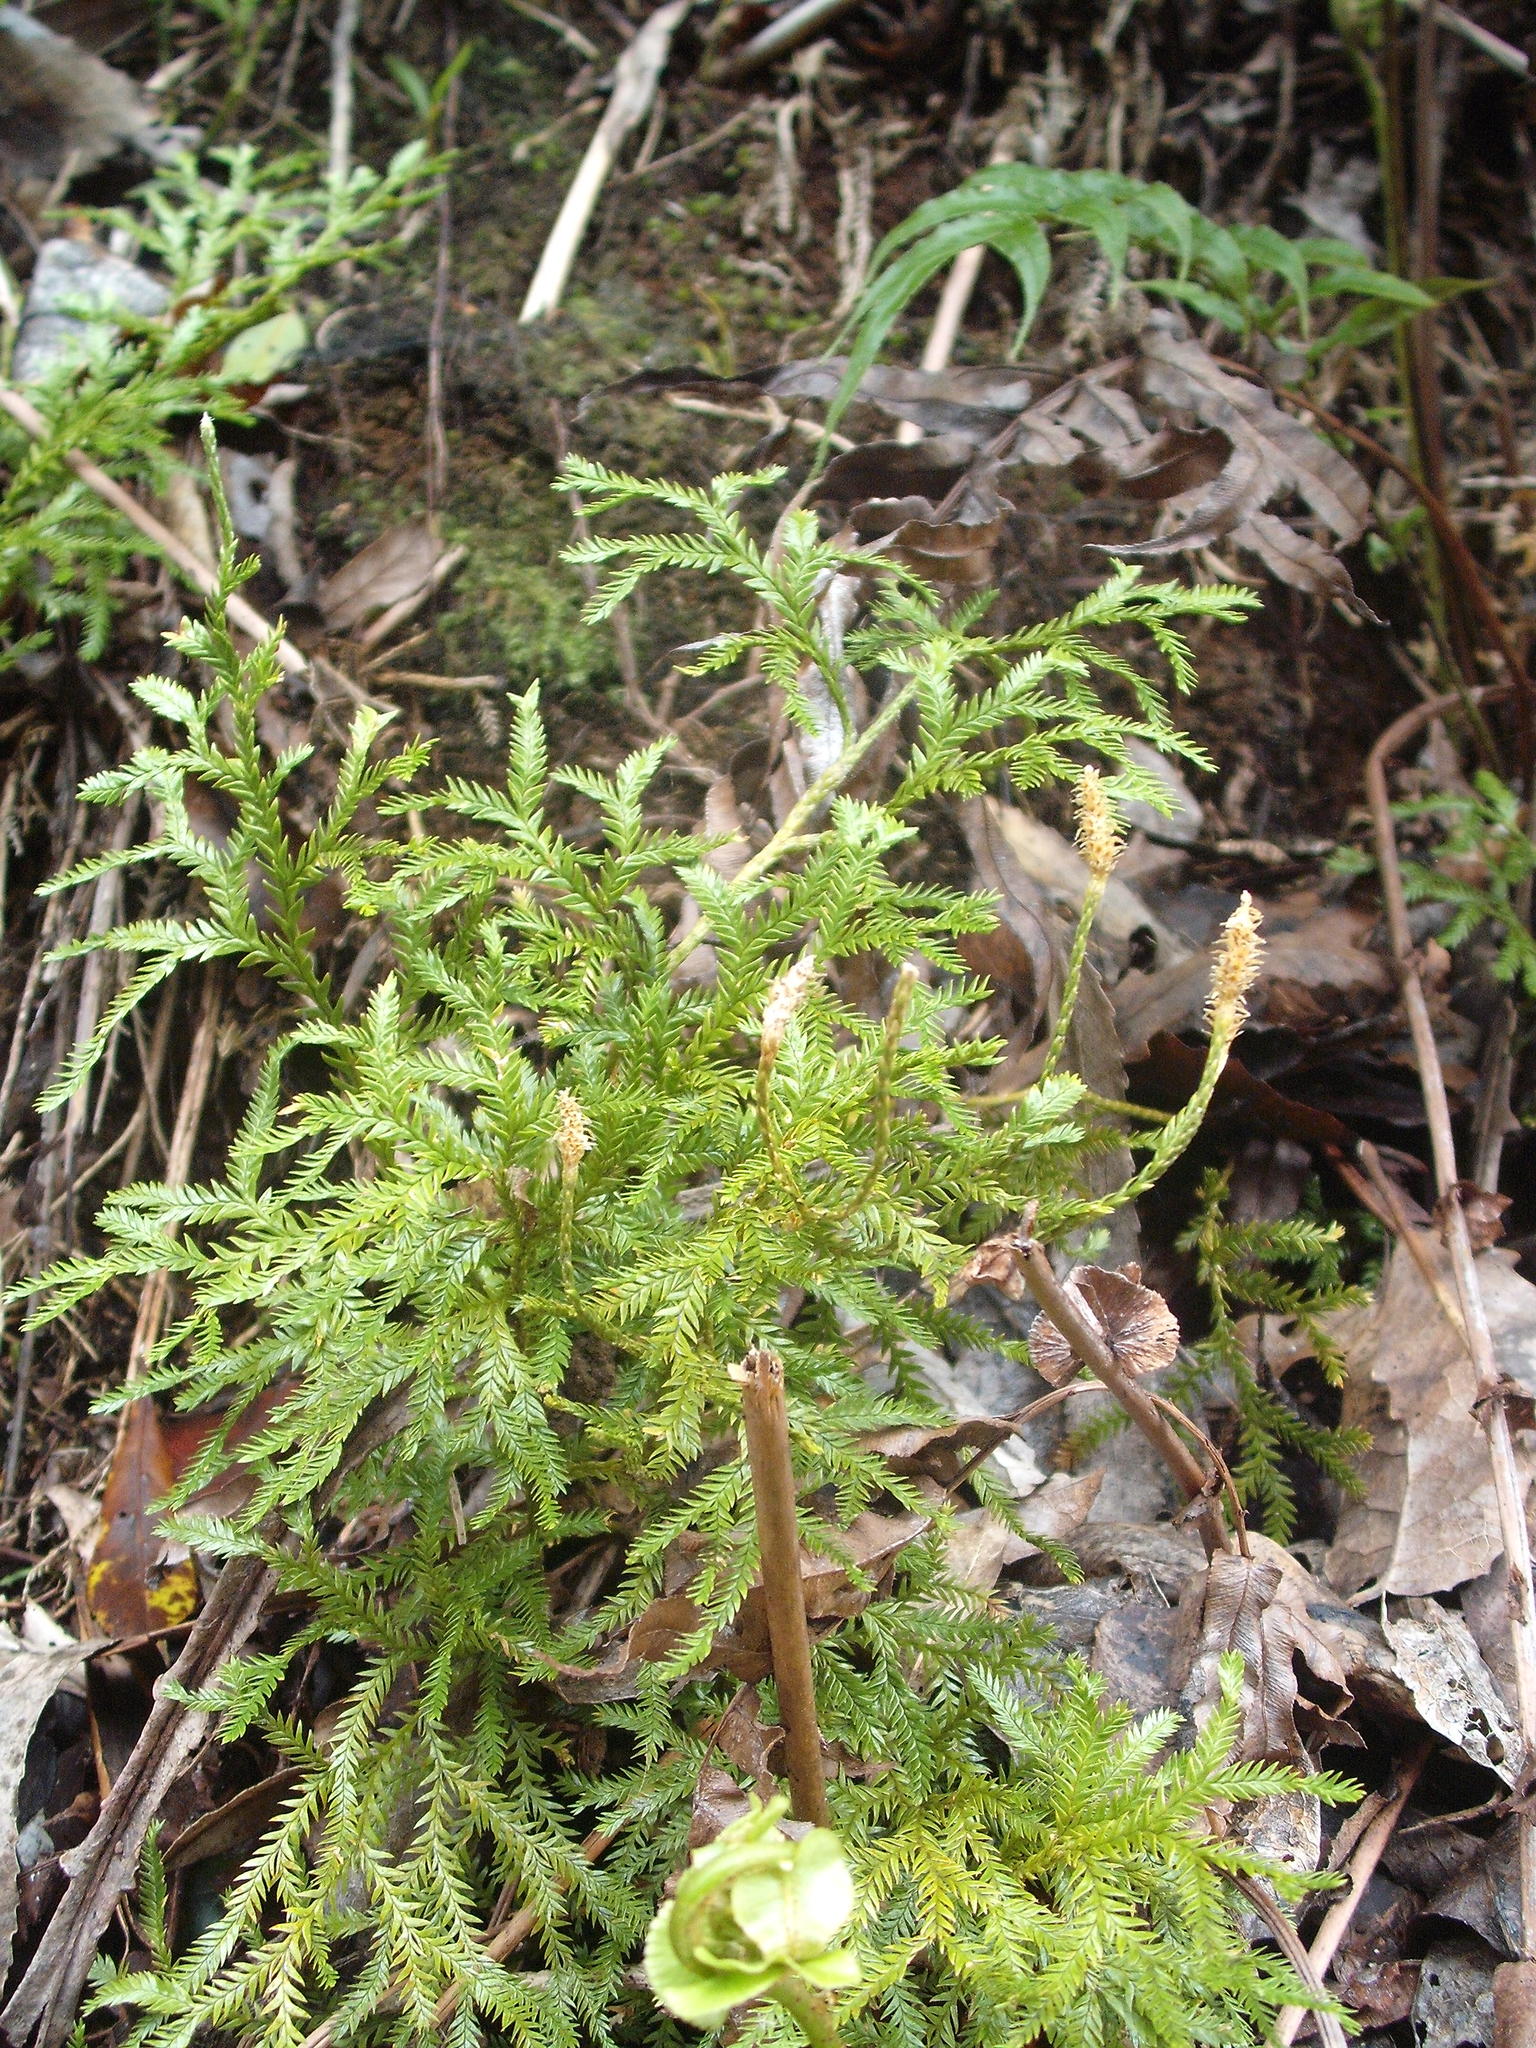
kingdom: Plantae
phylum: Tracheophyta
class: Lycopodiopsida
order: Lycopodiales
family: Lycopodiaceae
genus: Diphasium
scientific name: Diphasium scariosum
